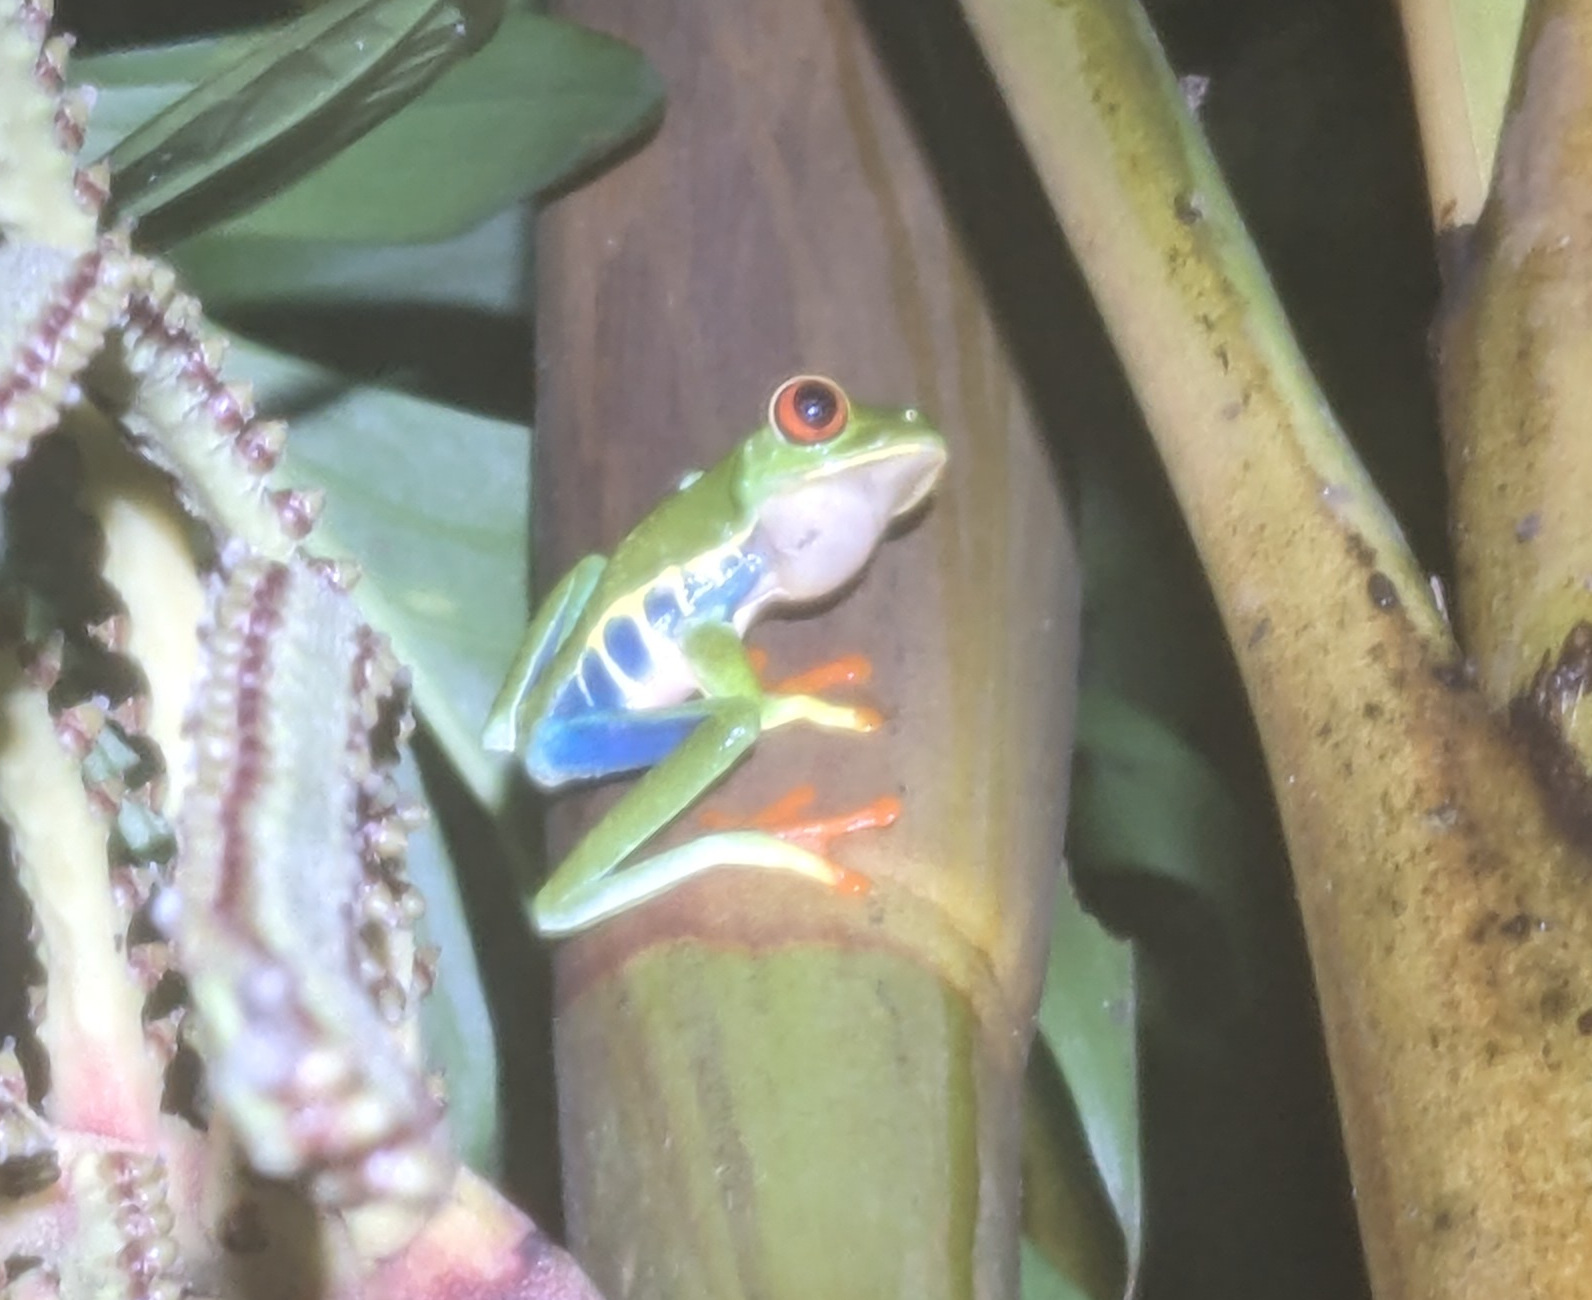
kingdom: Animalia
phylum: Chordata
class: Amphibia
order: Anura
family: Phyllomedusidae
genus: Agalychnis
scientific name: Agalychnis callidryas
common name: Red-eyed treefrog
